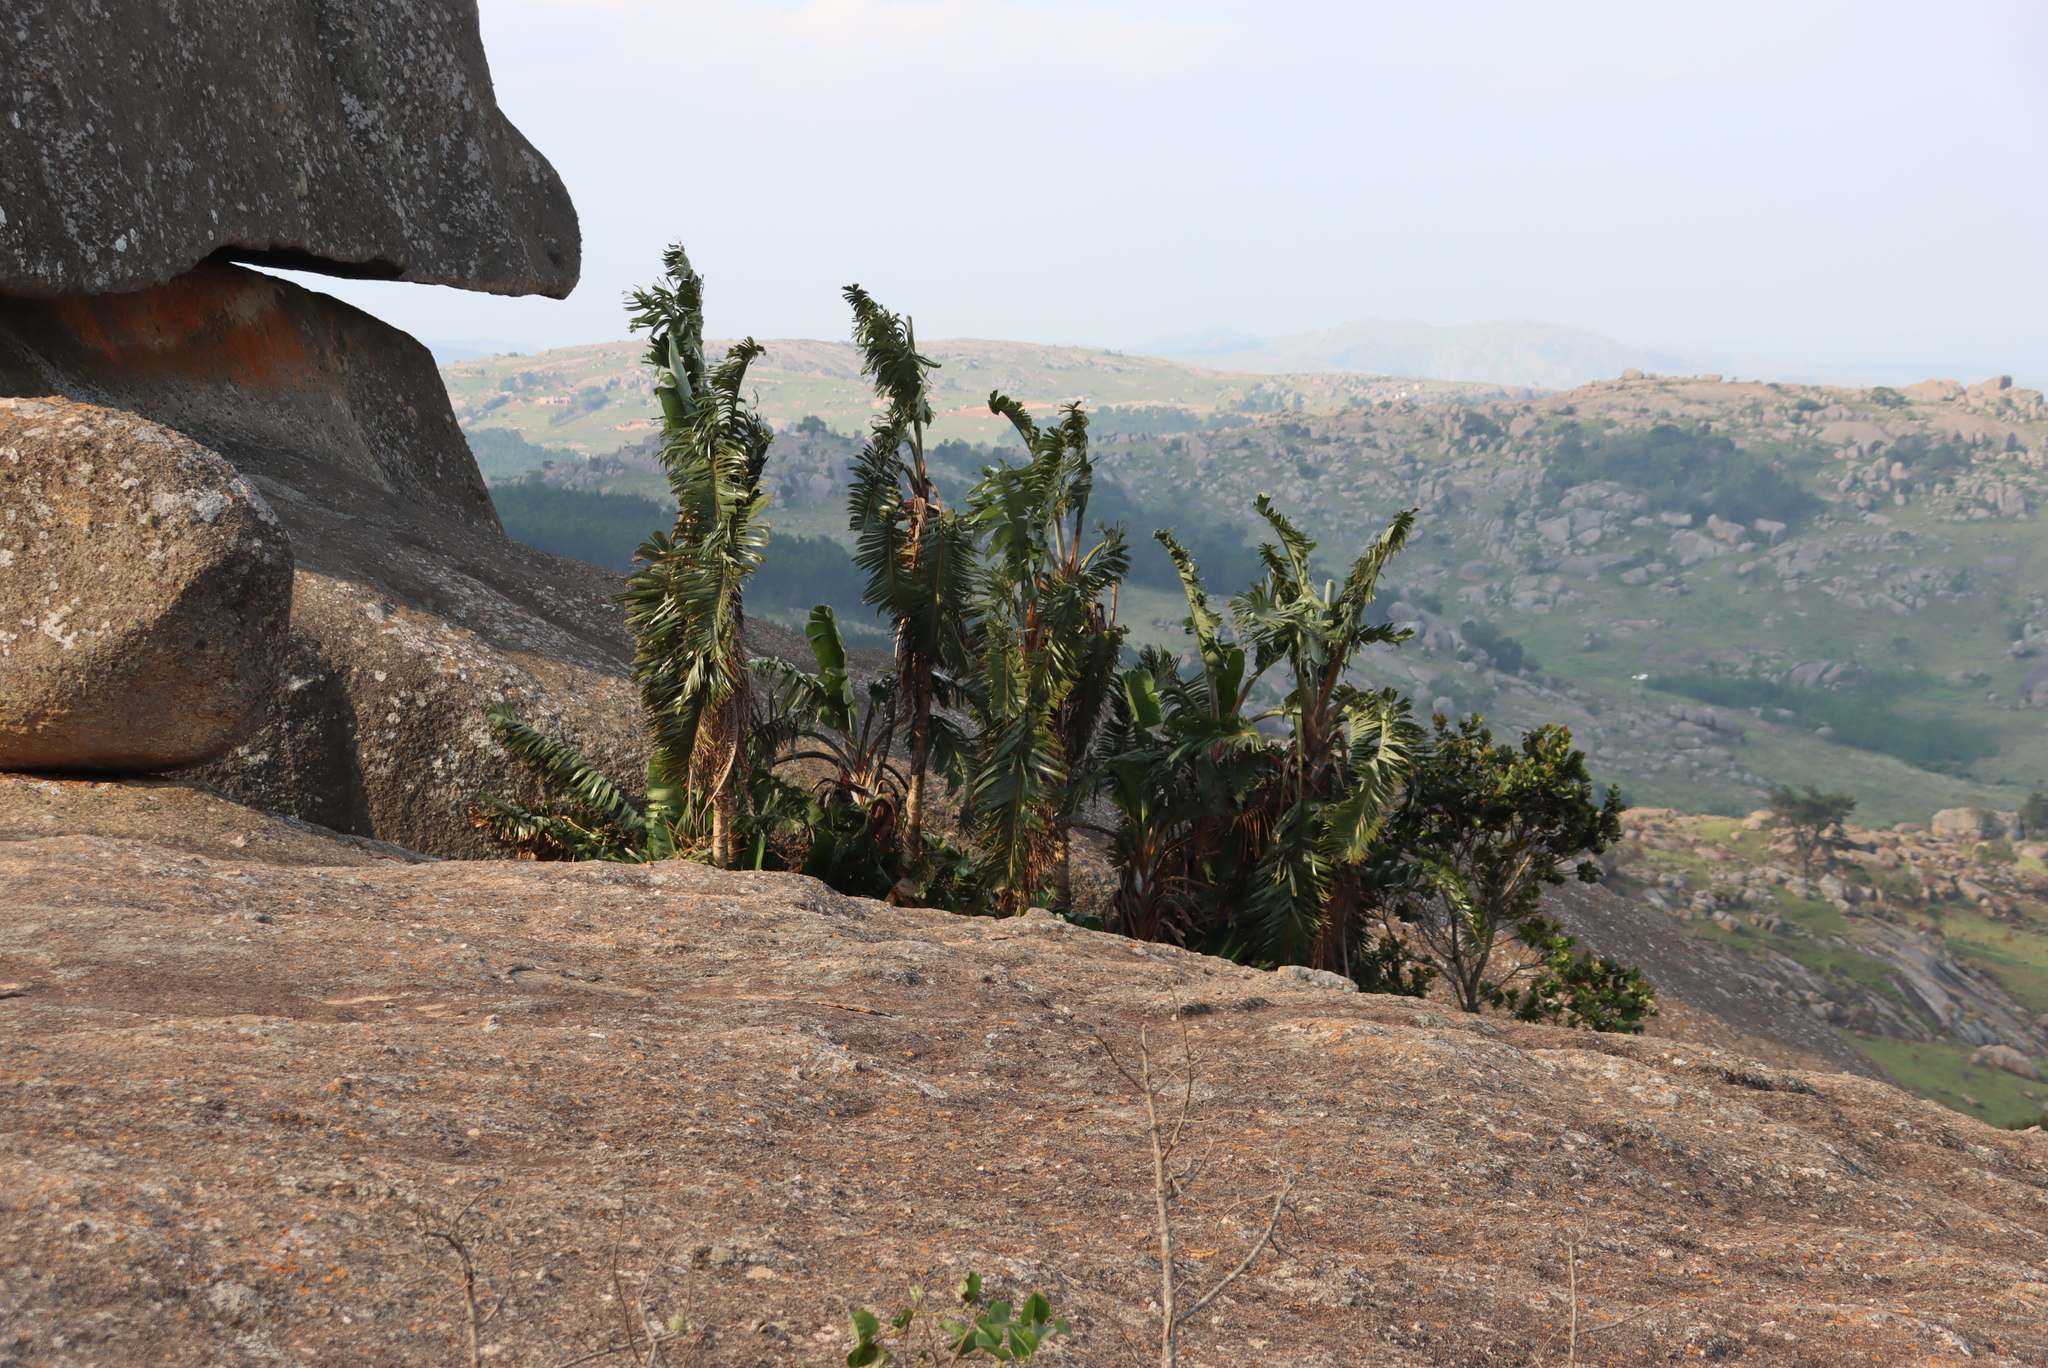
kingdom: Plantae
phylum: Tracheophyta
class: Liliopsida
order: Zingiberales
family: Strelitziaceae
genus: Strelitzia
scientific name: Strelitzia caudata
